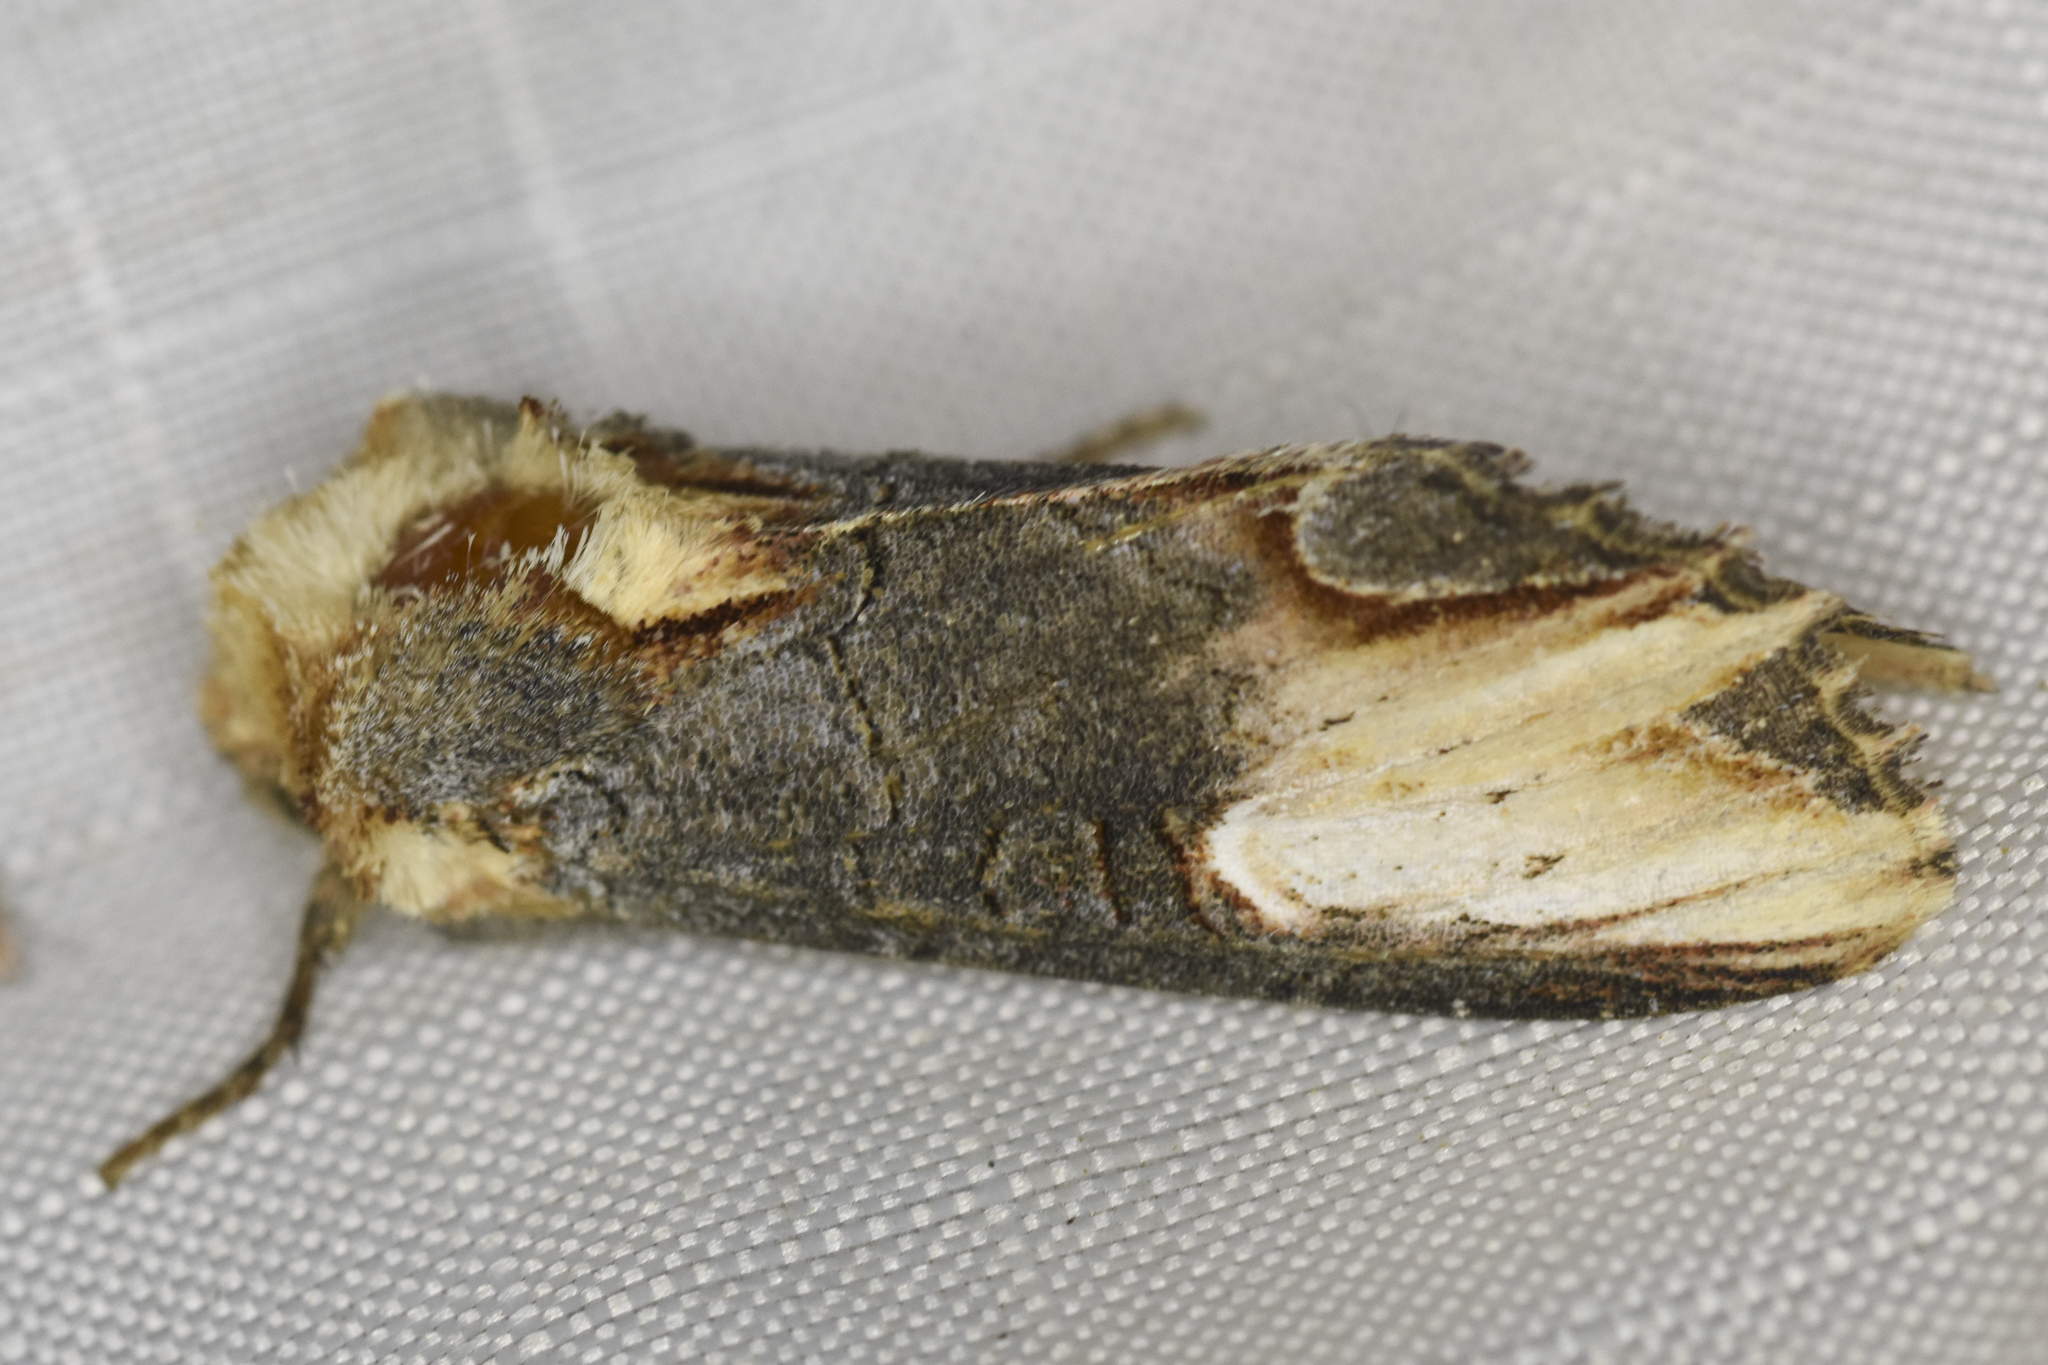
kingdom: Animalia
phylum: Arthropoda
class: Insecta
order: Lepidoptera
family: Noctuidae
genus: Admetovis
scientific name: Admetovis similaris
